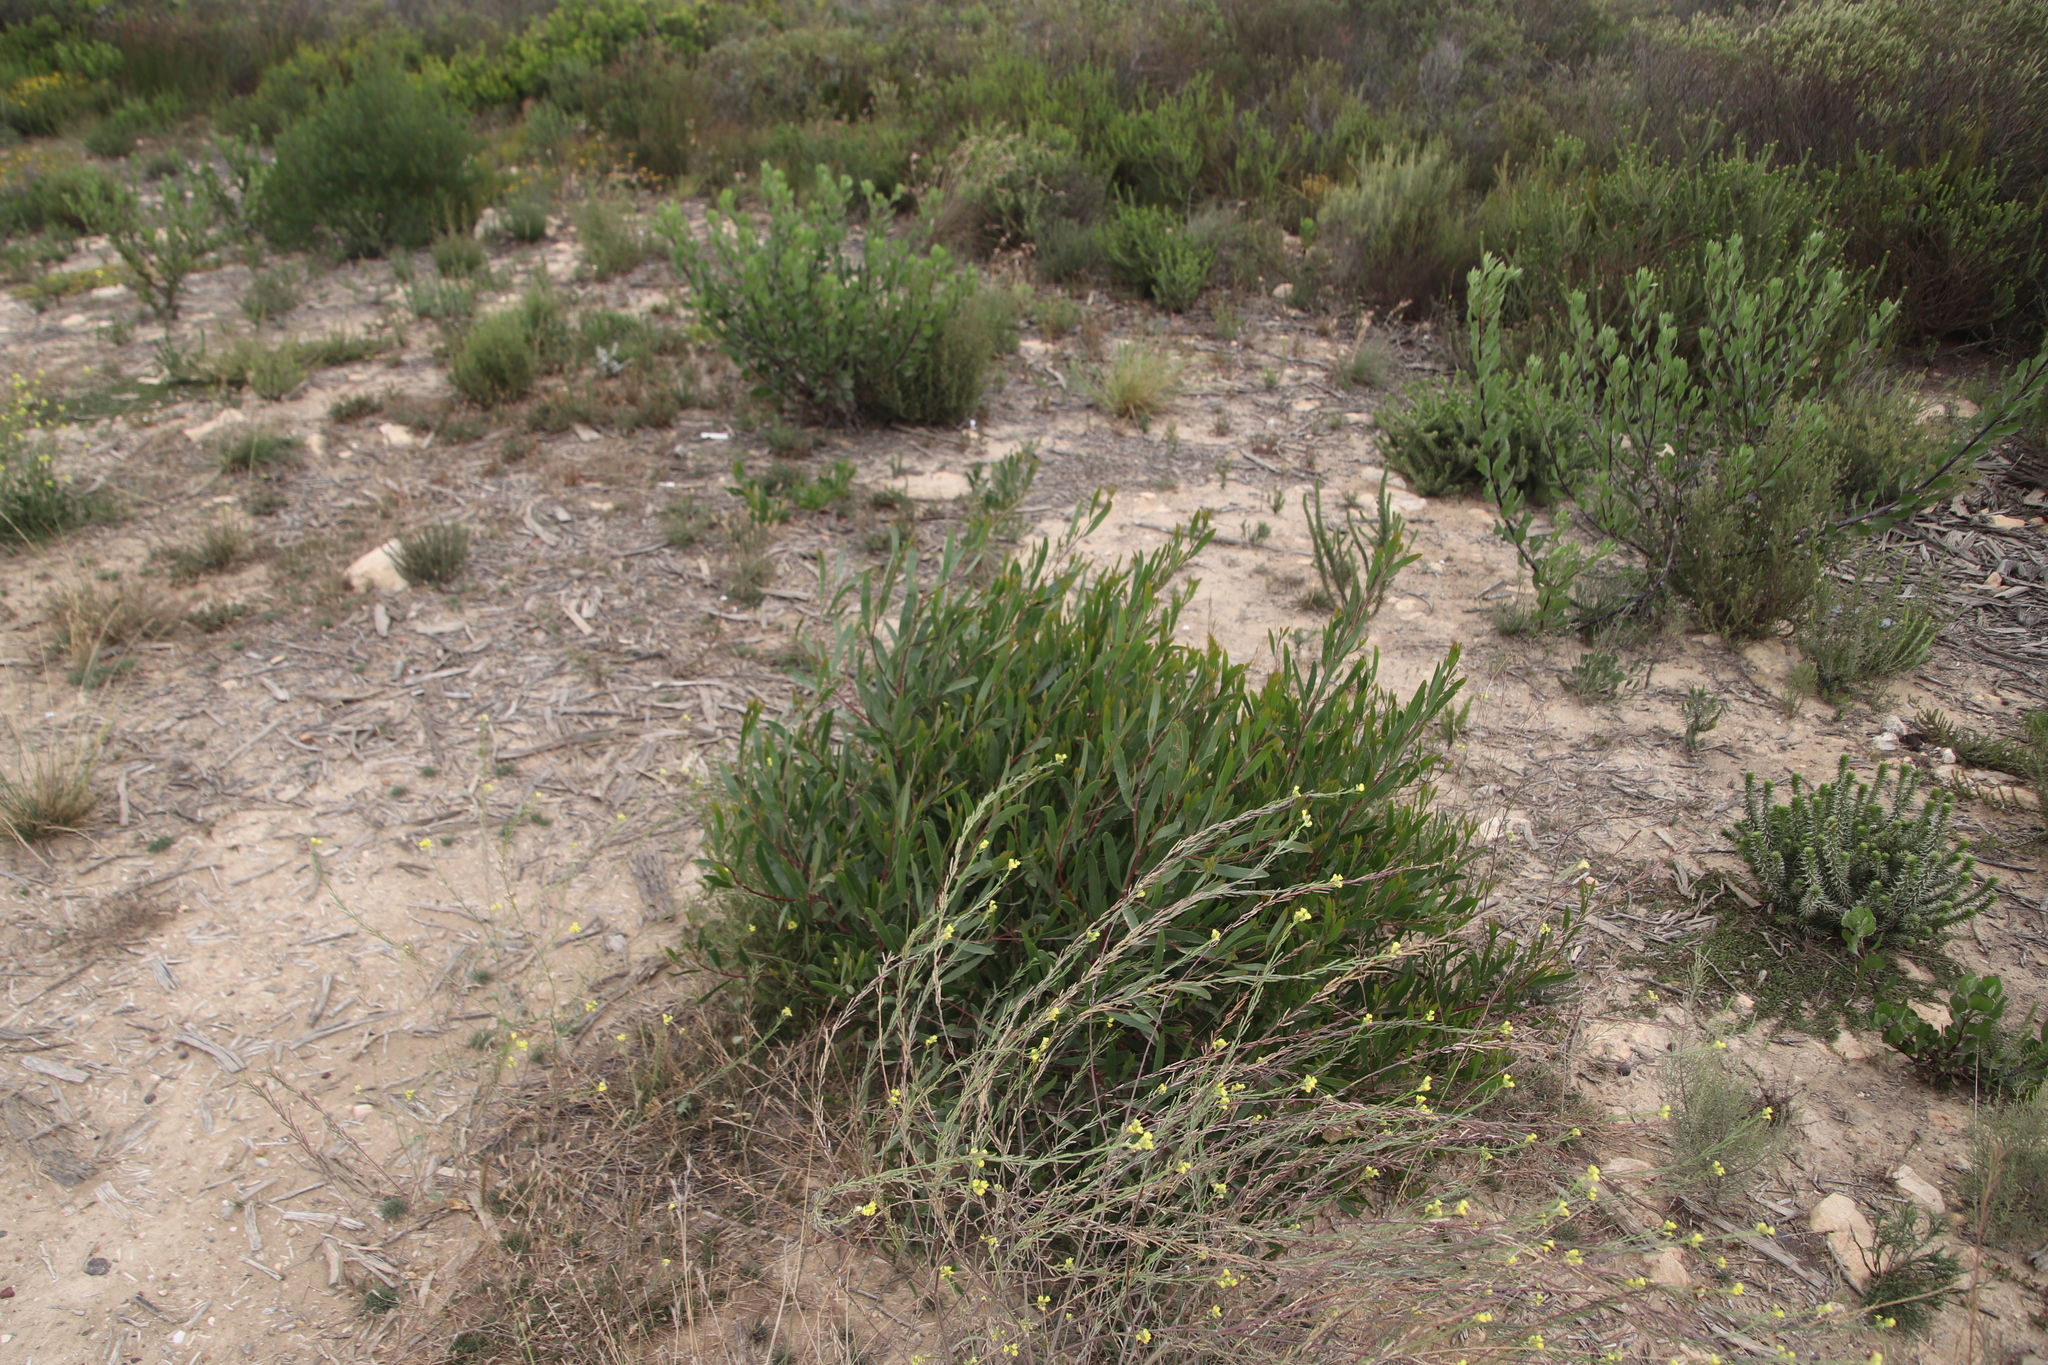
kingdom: Plantae
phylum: Tracheophyta
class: Magnoliopsida
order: Fabales
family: Fabaceae
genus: Acacia
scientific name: Acacia cyclops
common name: Coastal wattle
